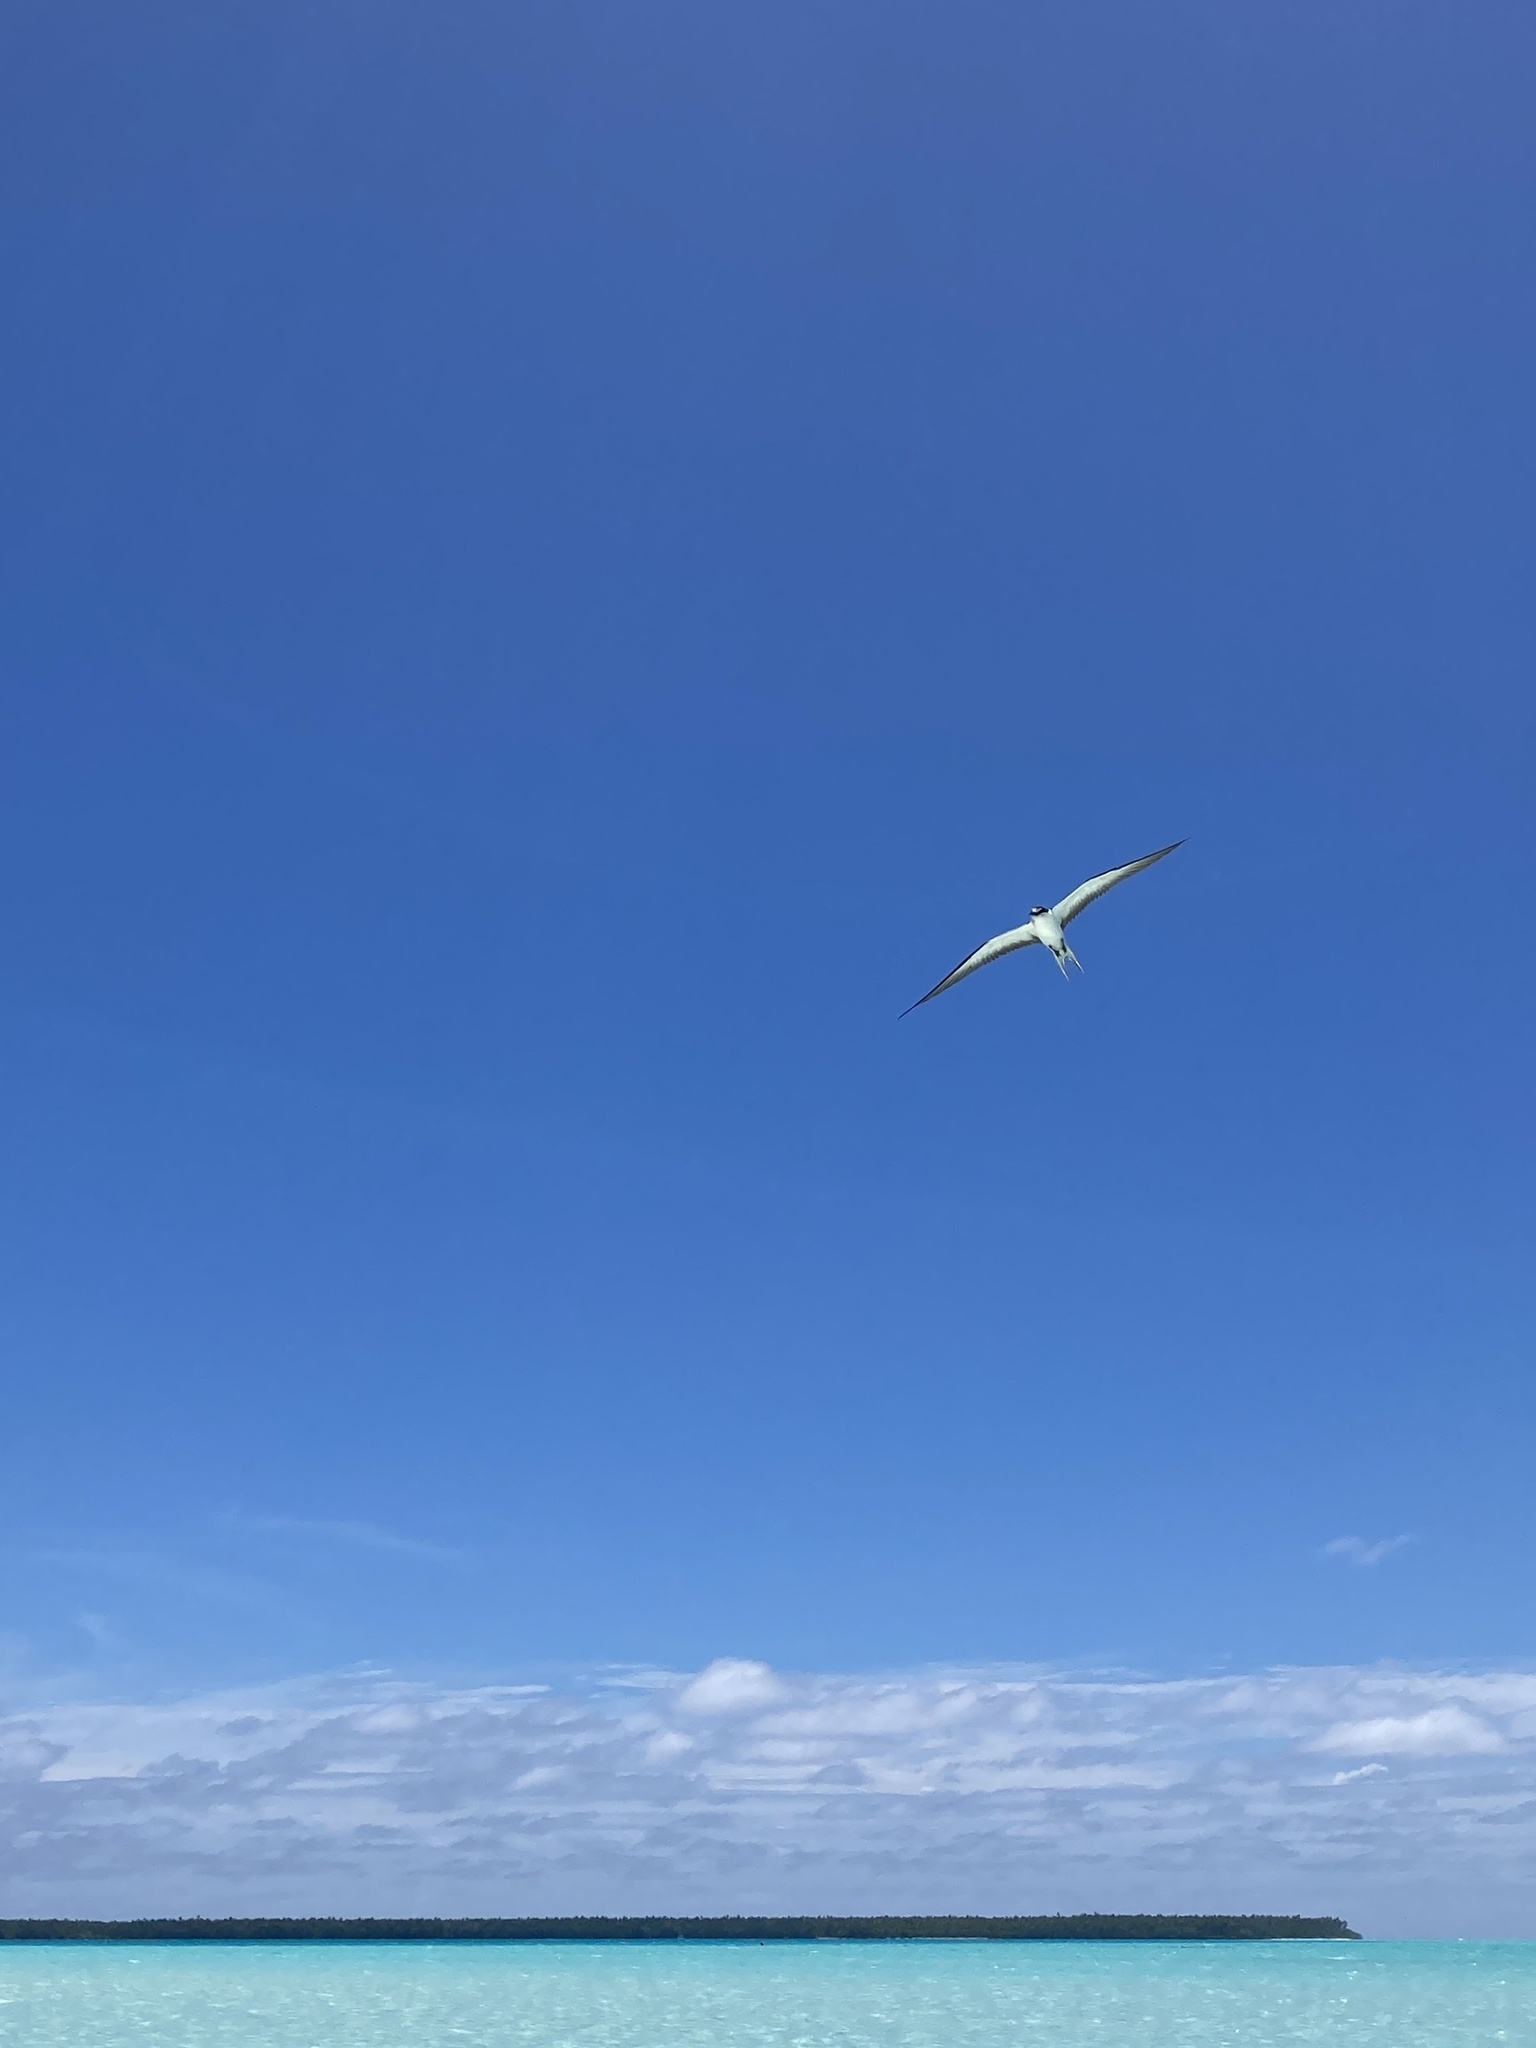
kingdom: Animalia
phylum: Chordata
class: Aves
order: Charadriiformes
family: Laridae
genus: Onychoprion
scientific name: Onychoprion fuscatus
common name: Sooty tern
